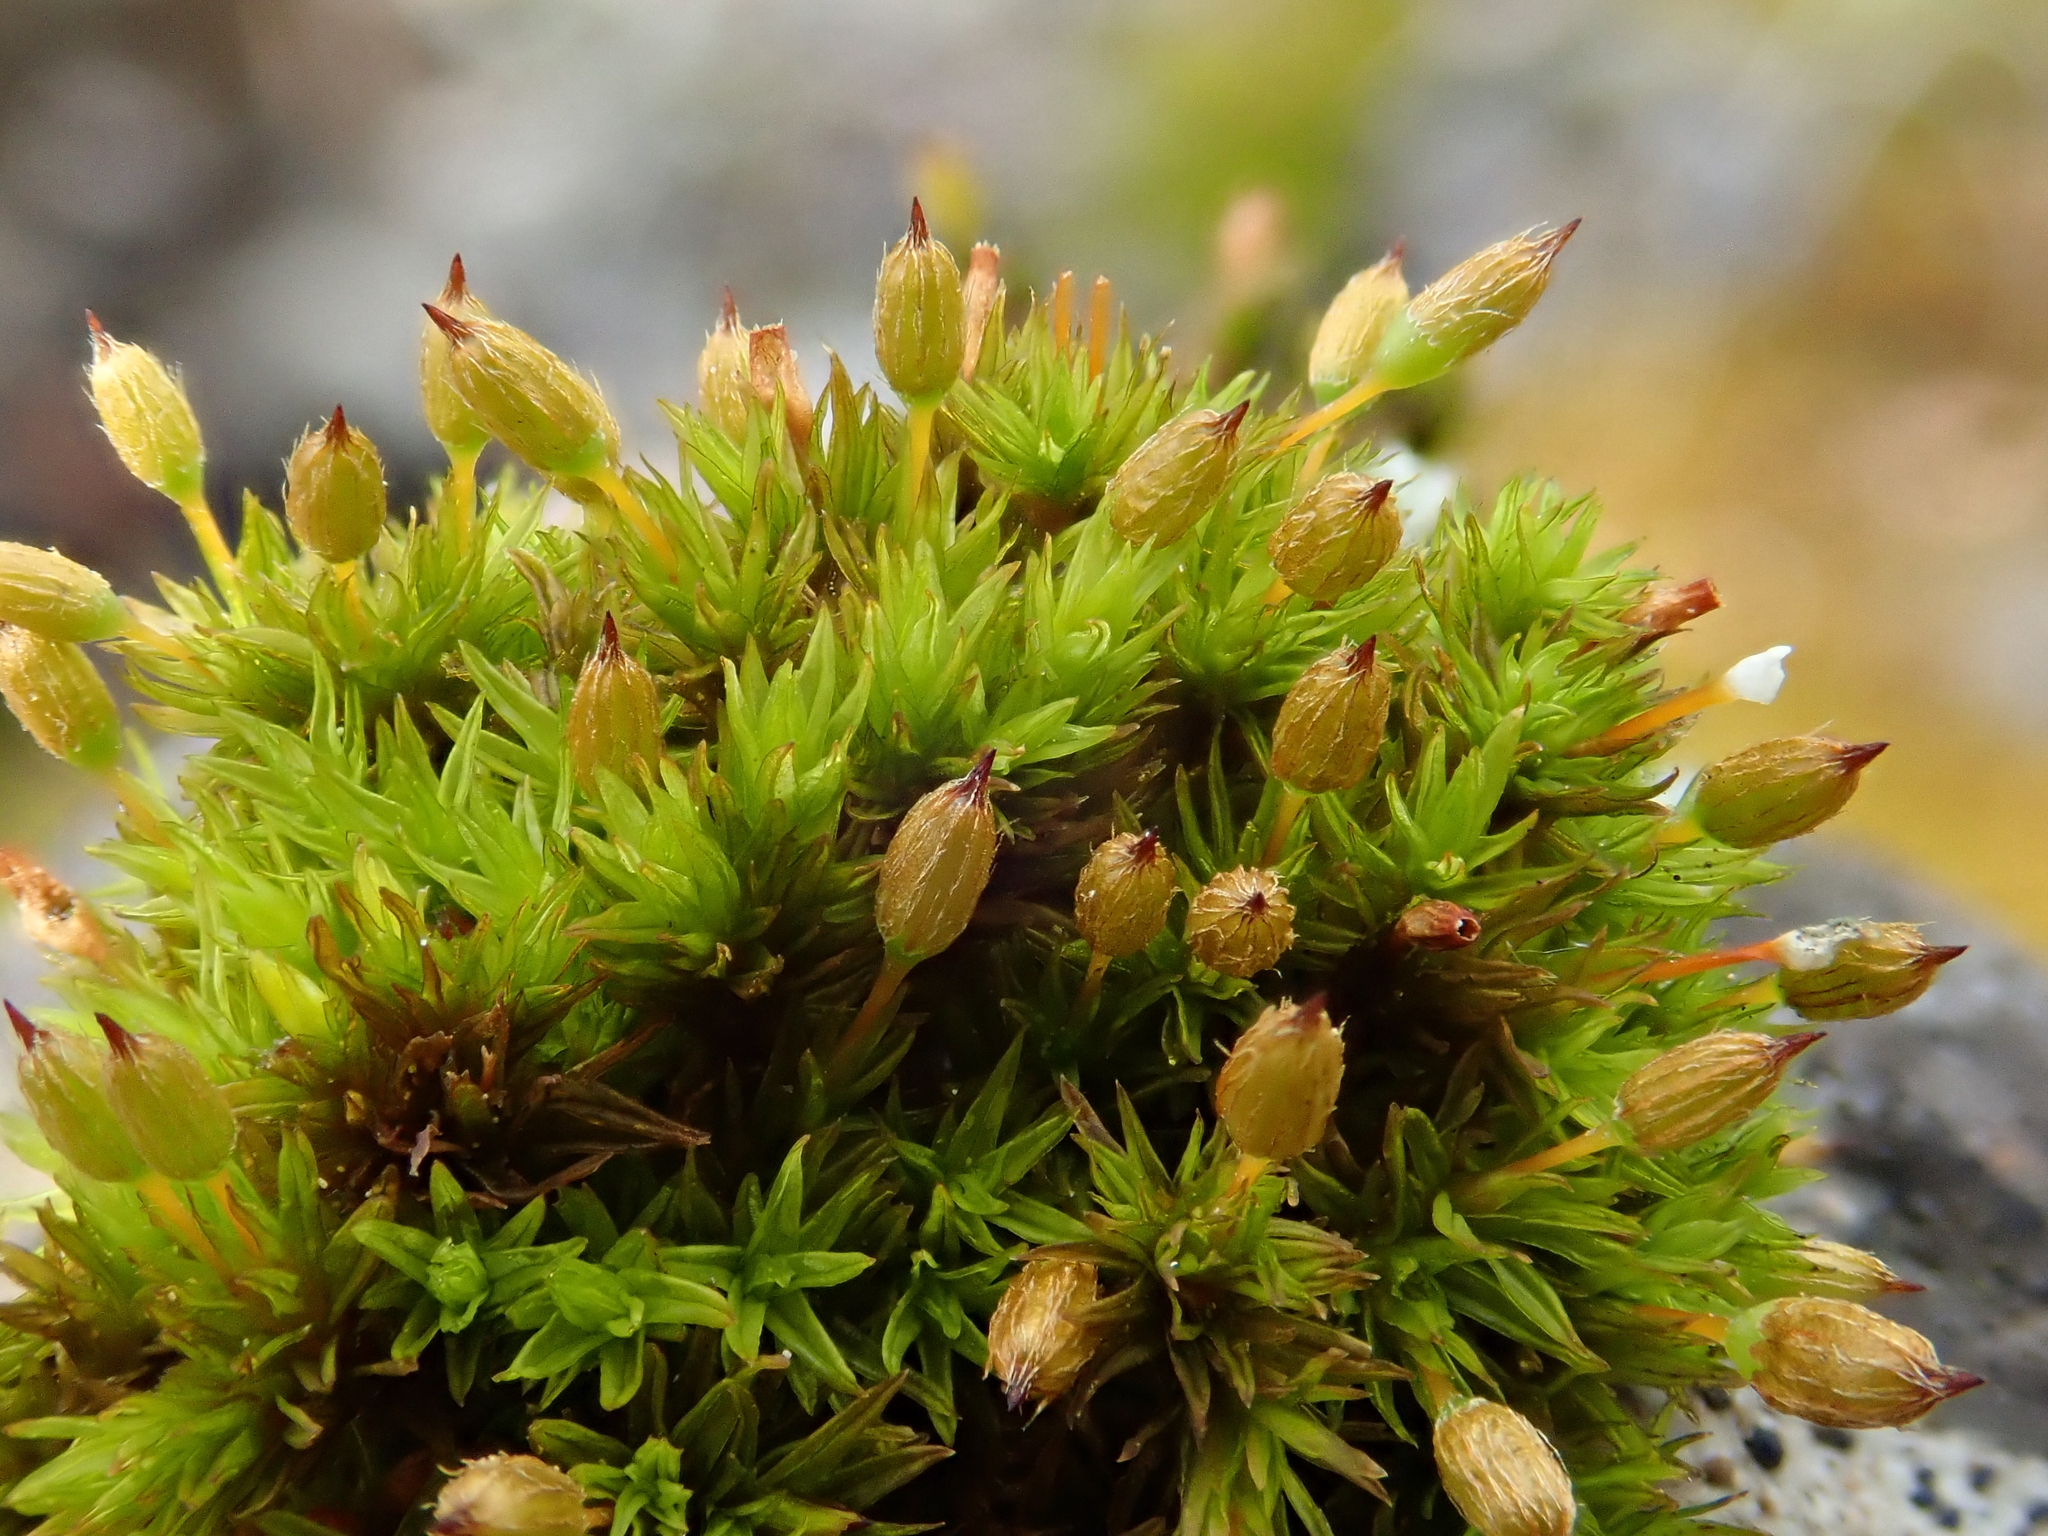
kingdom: Plantae
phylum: Bryophyta
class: Bryopsida
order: Orthotrichales
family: Orthotrichaceae
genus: Orthotrichum
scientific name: Orthotrichum anomalum
